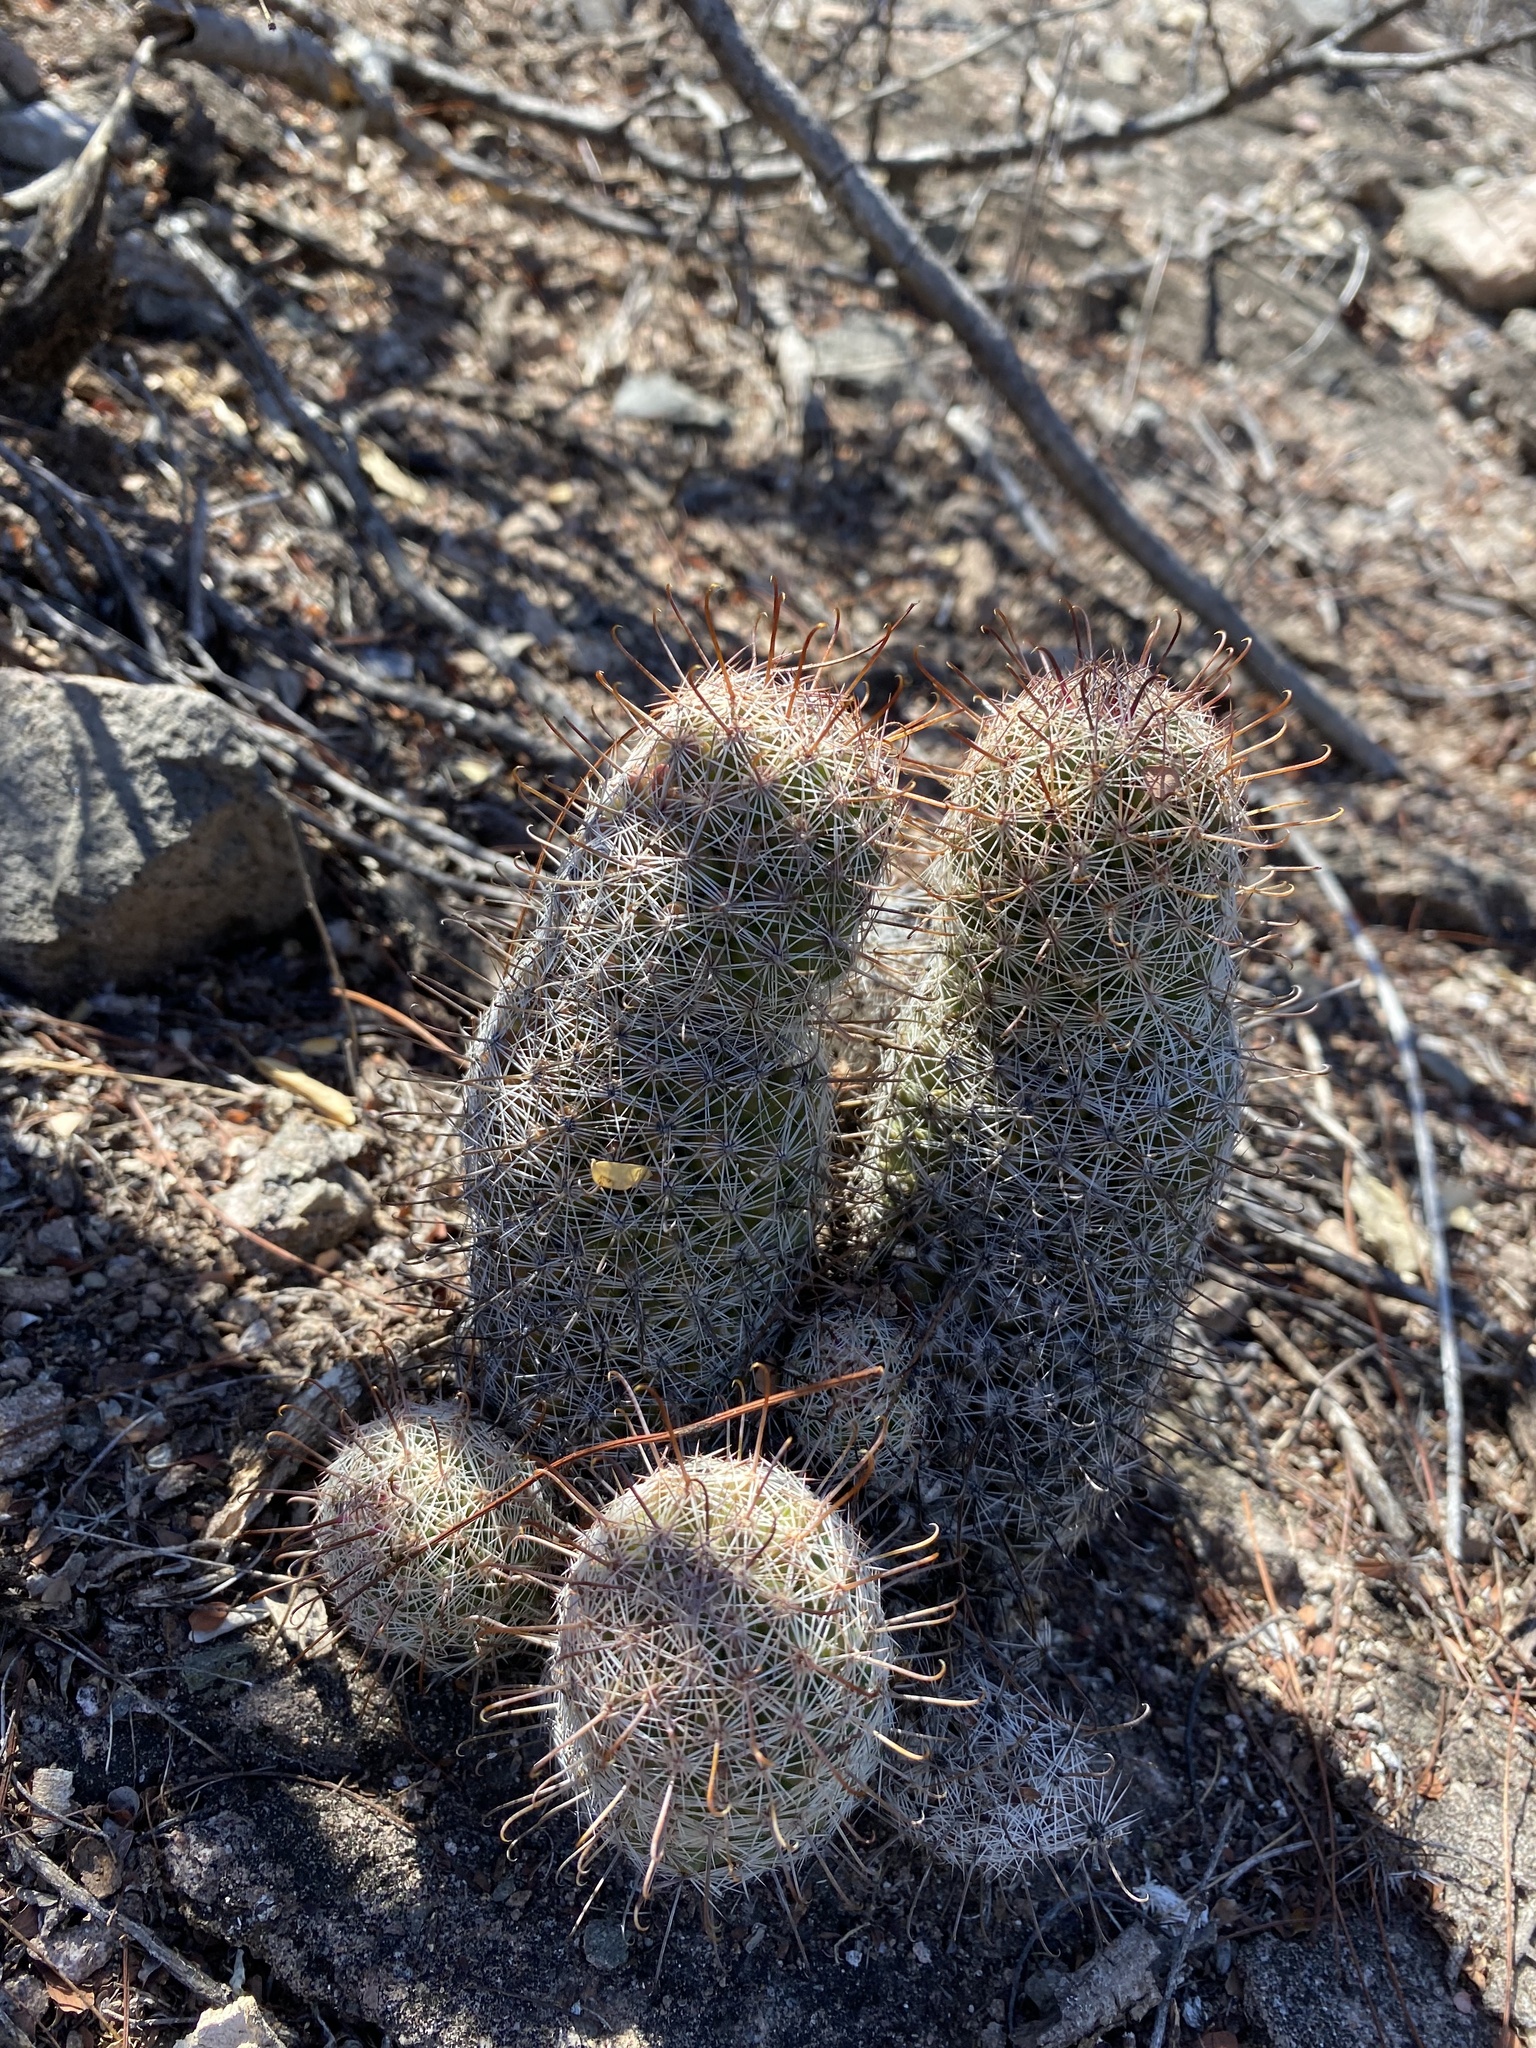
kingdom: Plantae
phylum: Tracheophyta
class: Magnoliopsida
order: Caryophyllales
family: Cactaceae
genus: Cochemiea
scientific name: Cochemiea grahamii
